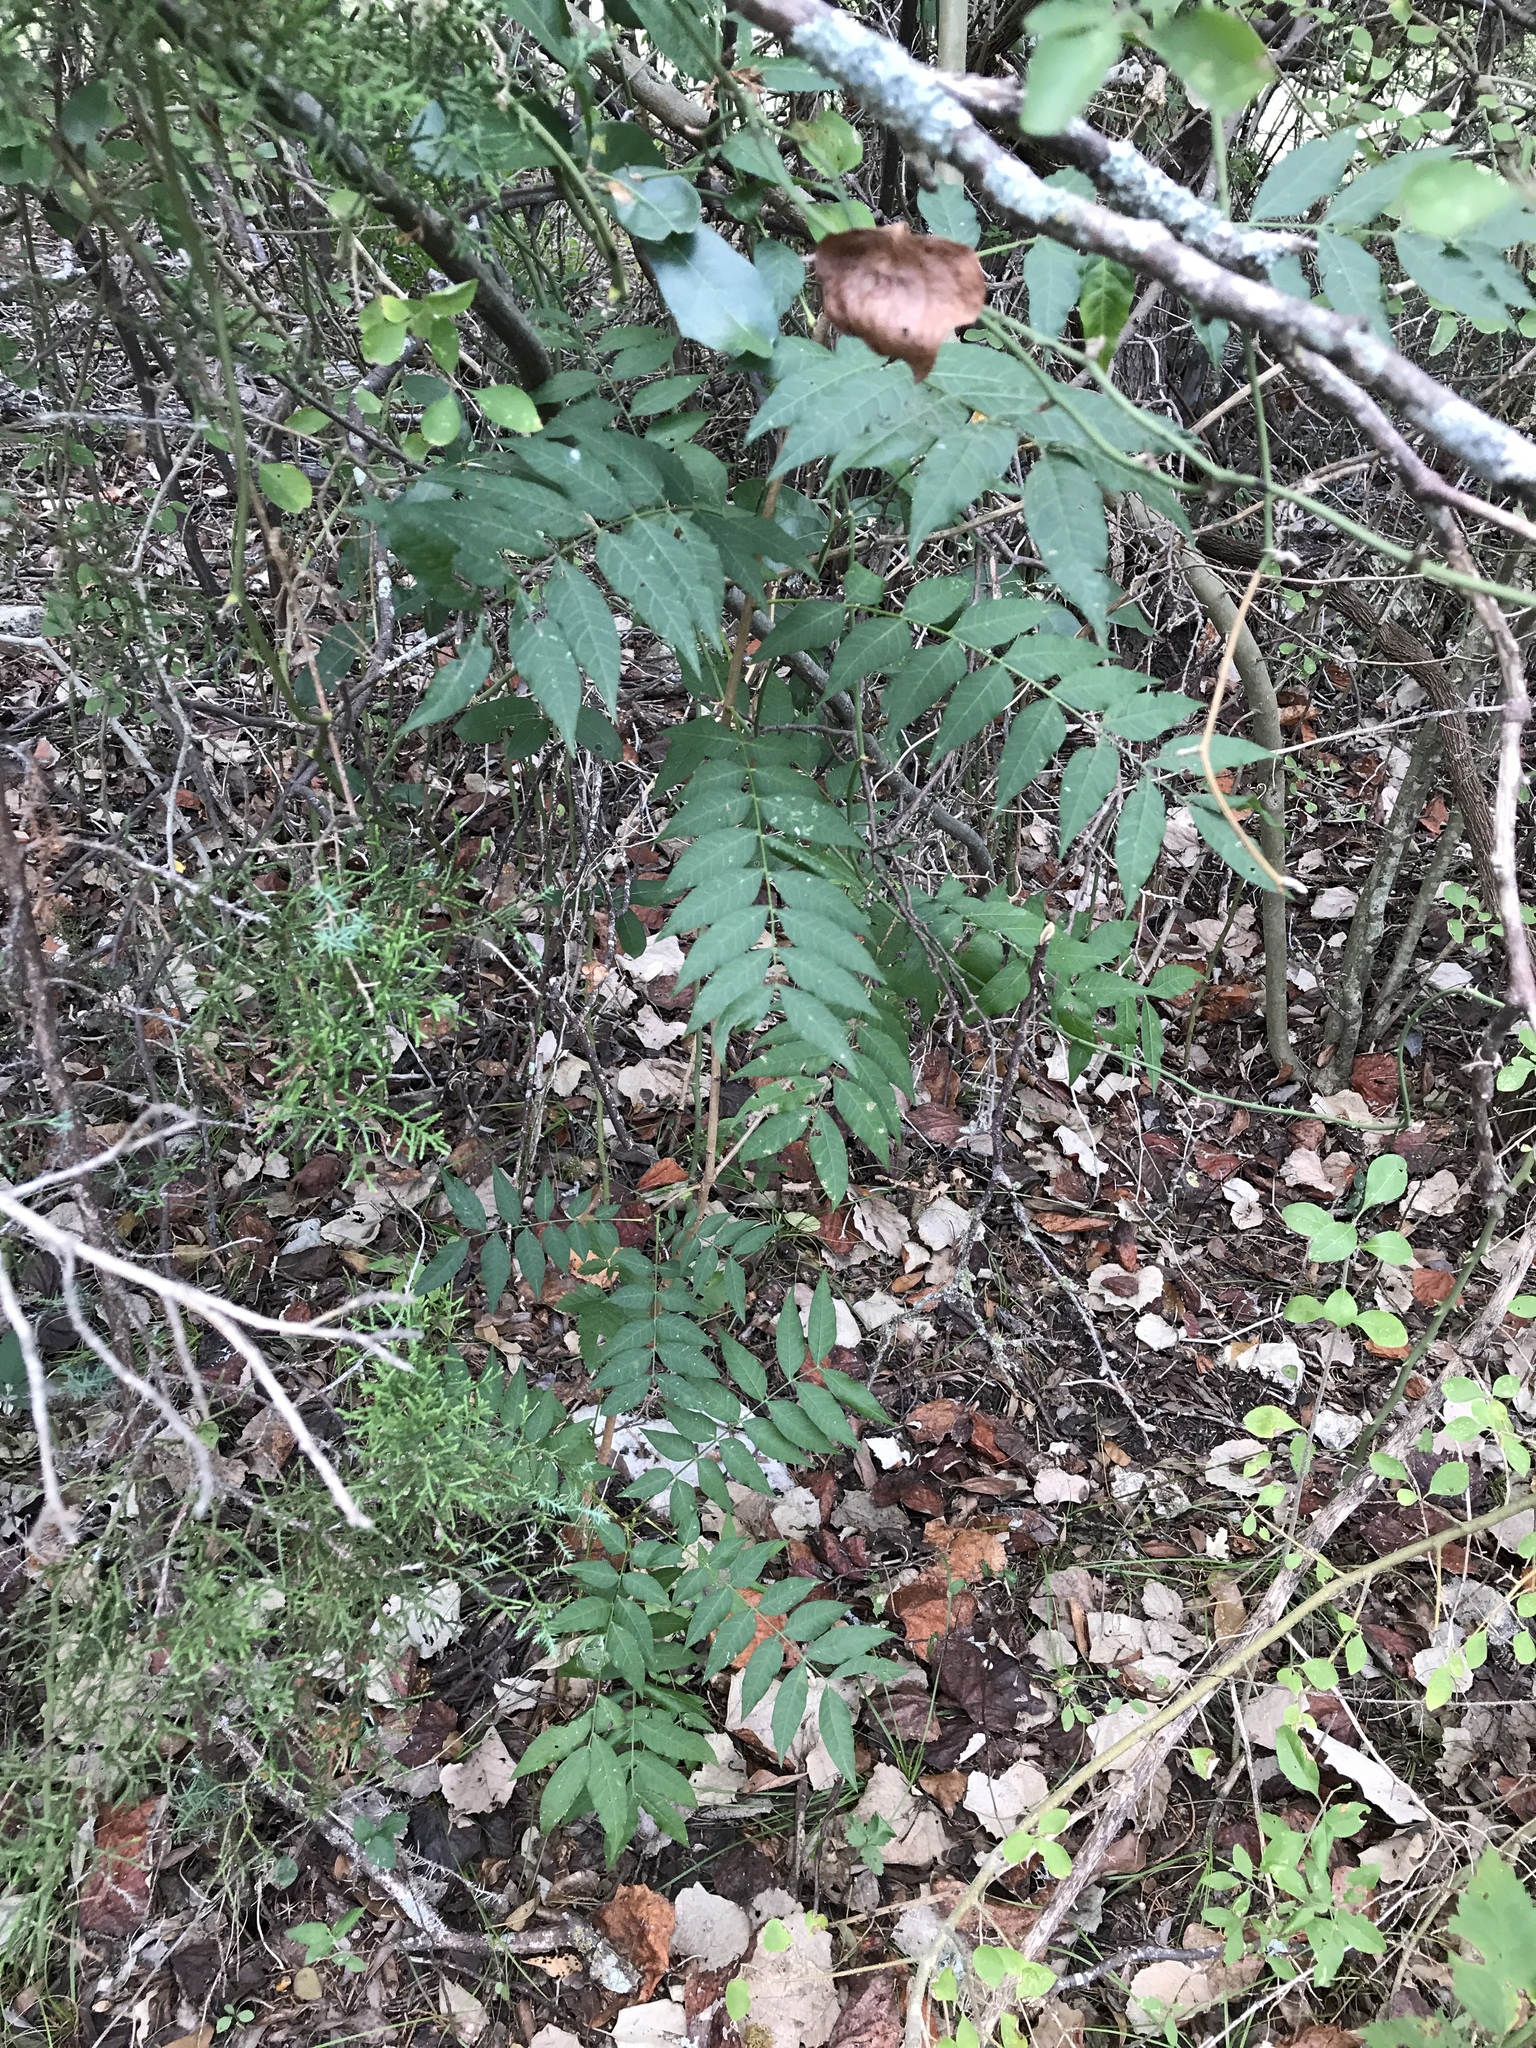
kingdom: Plantae
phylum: Tracheophyta
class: Magnoliopsida
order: Sapindales
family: Anacardiaceae
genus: Pistacia
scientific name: Pistacia chinensis
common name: Chinese pistache
